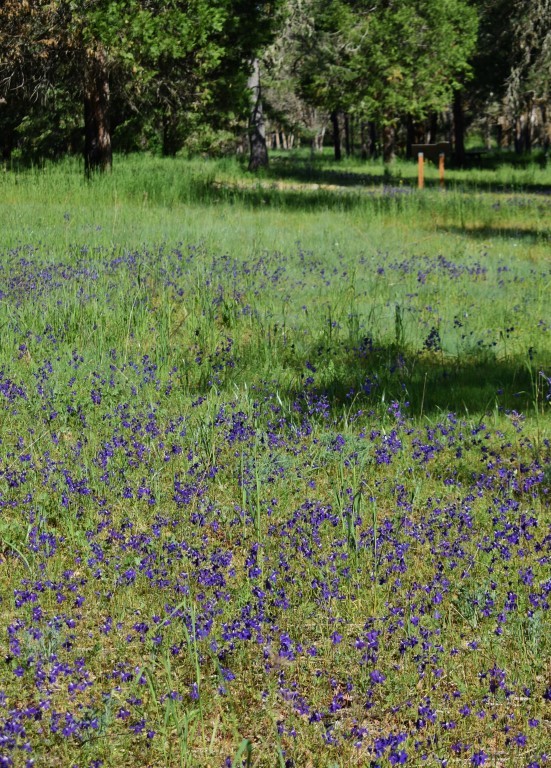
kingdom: Plantae
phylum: Tracheophyta
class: Magnoliopsida
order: Ranunculales
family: Ranunculaceae
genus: Delphinium
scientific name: Delphinium menziesii
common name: Menzies's larkspur
